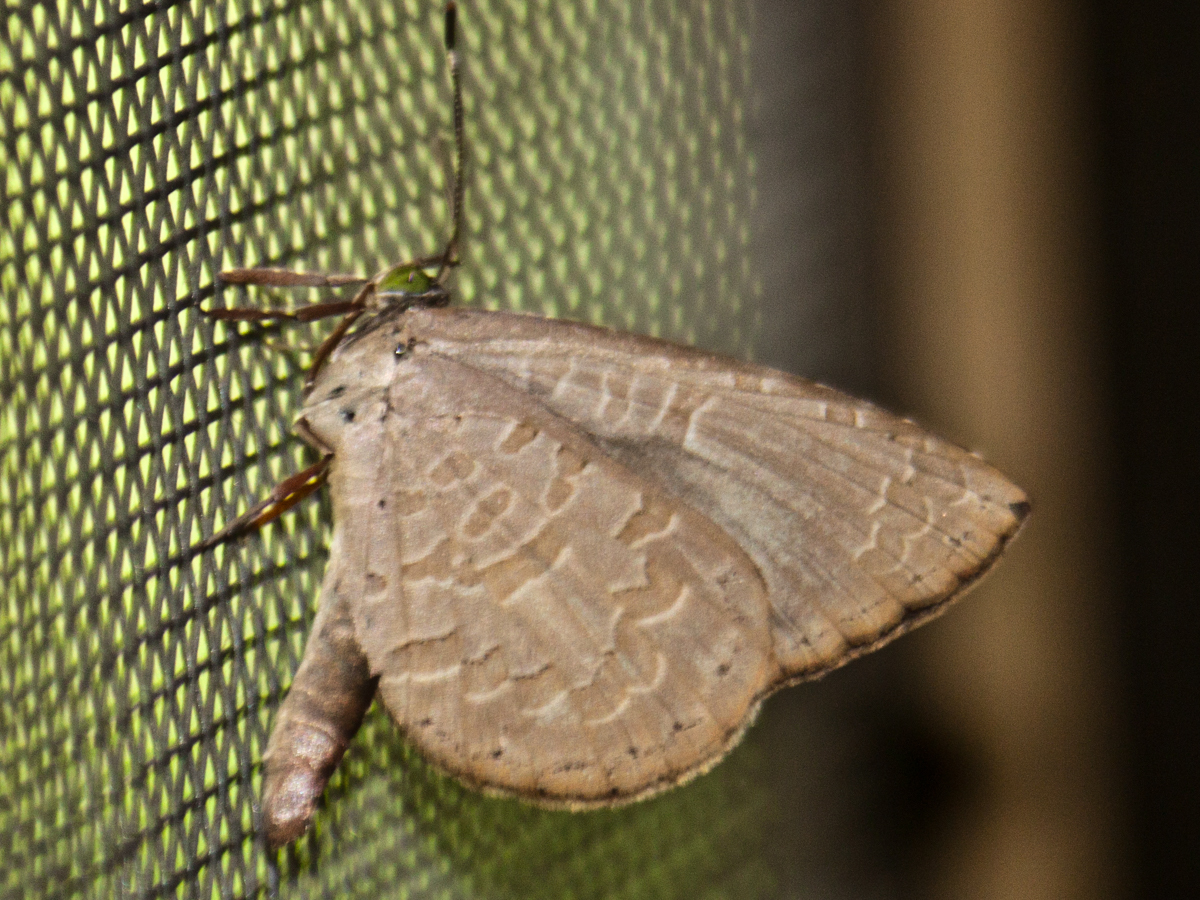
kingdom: Animalia
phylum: Arthropoda
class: Insecta
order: Lepidoptera
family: Lycaenidae
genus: Miletus
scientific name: Miletus chinensis
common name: Common brownie
